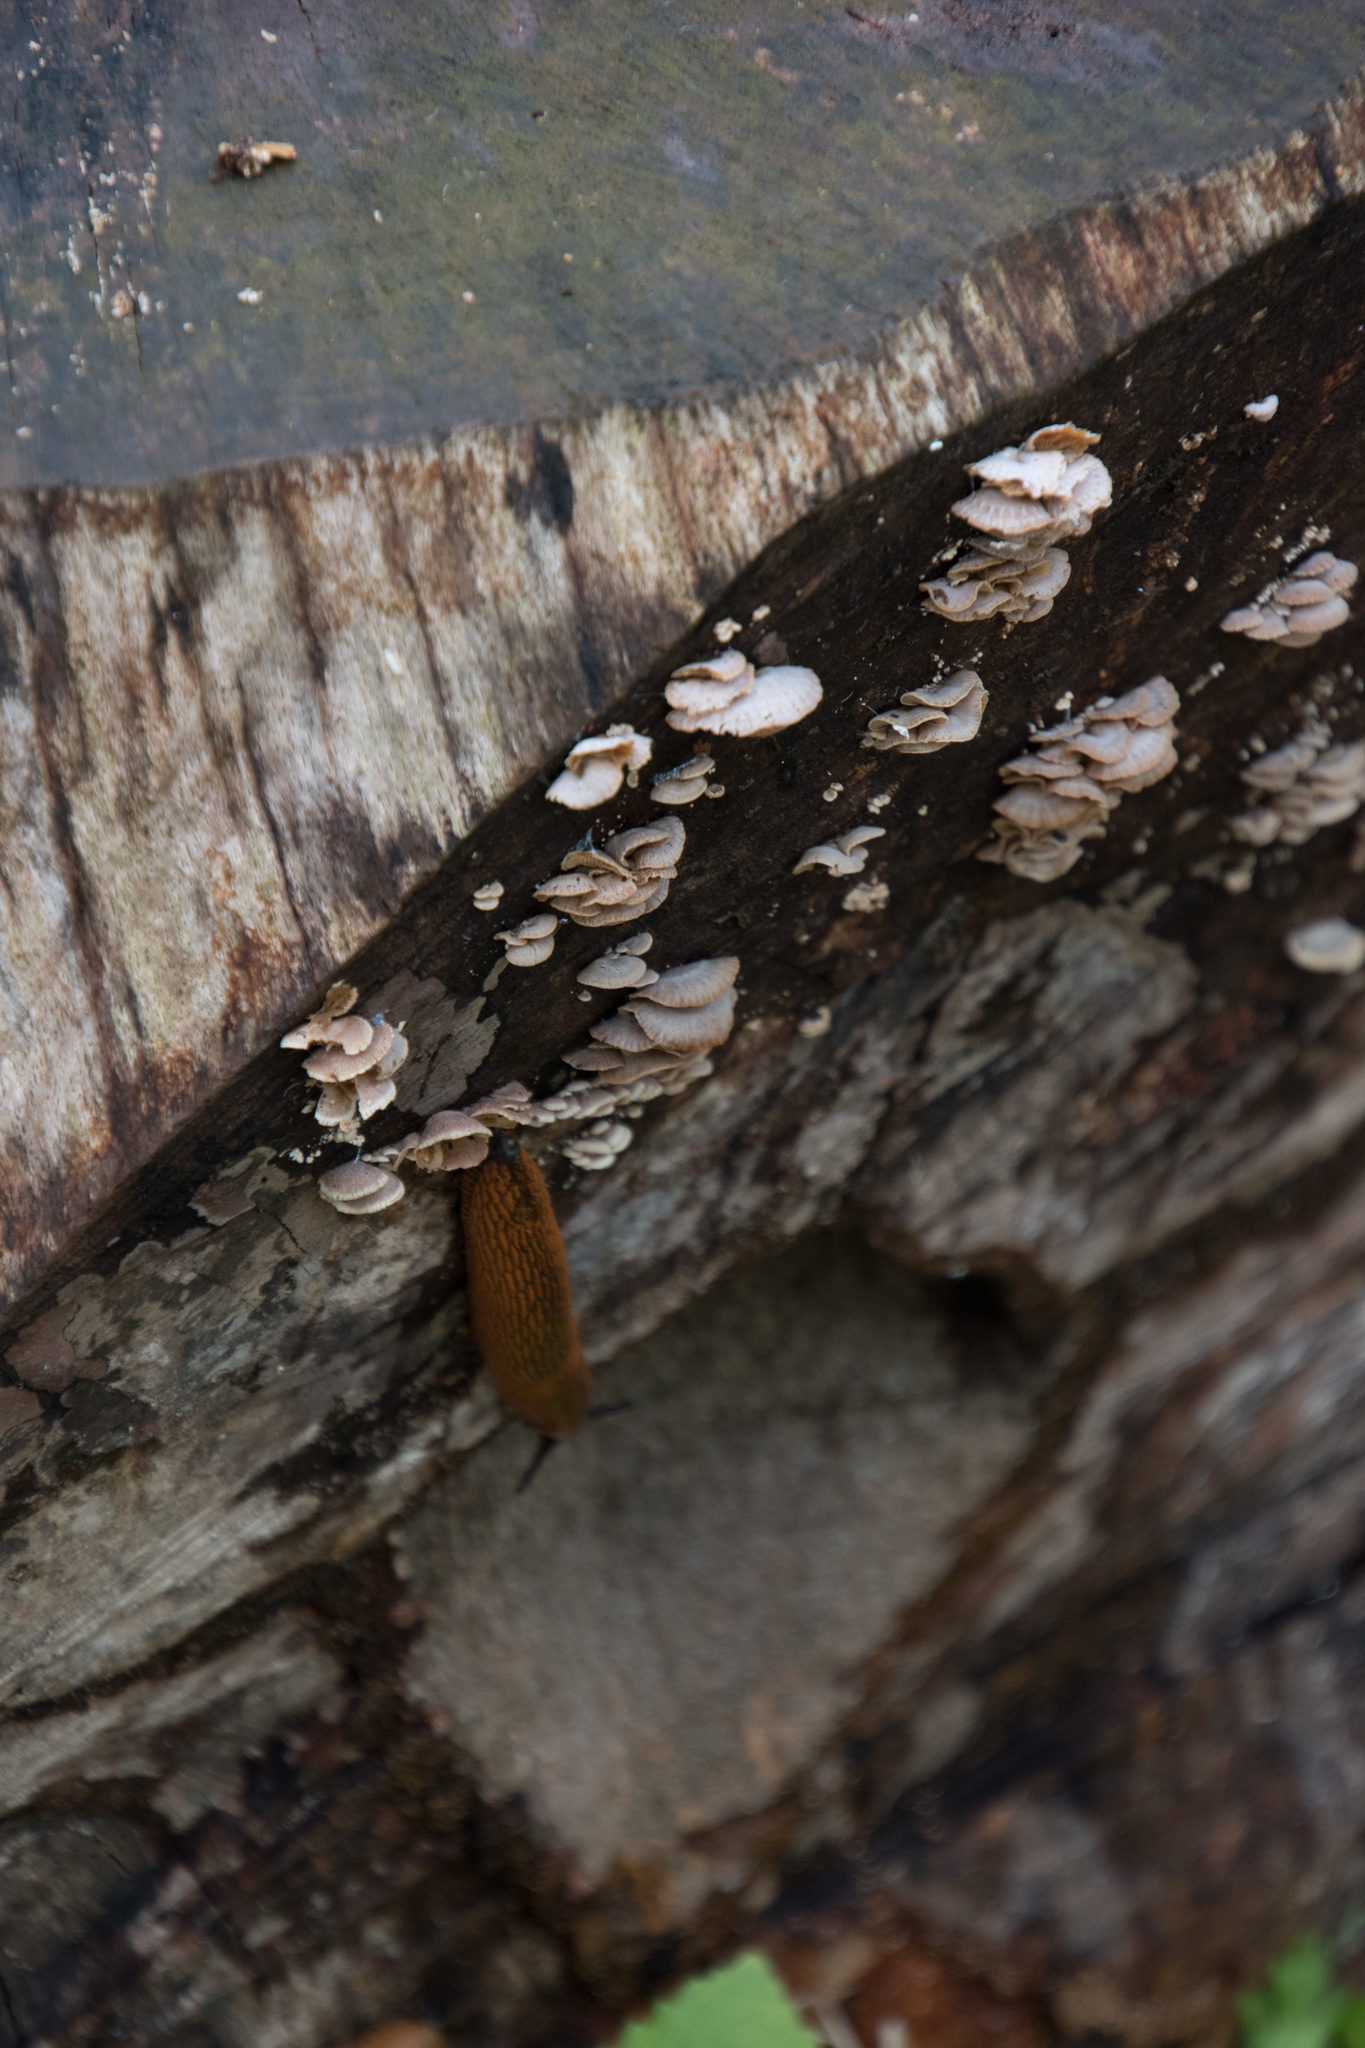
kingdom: Fungi
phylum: Basidiomycota
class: Agaricomycetes
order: Agaricales
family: Schizophyllaceae
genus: Schizophyllum
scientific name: Schizophyllum commune
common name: Common porecrust
